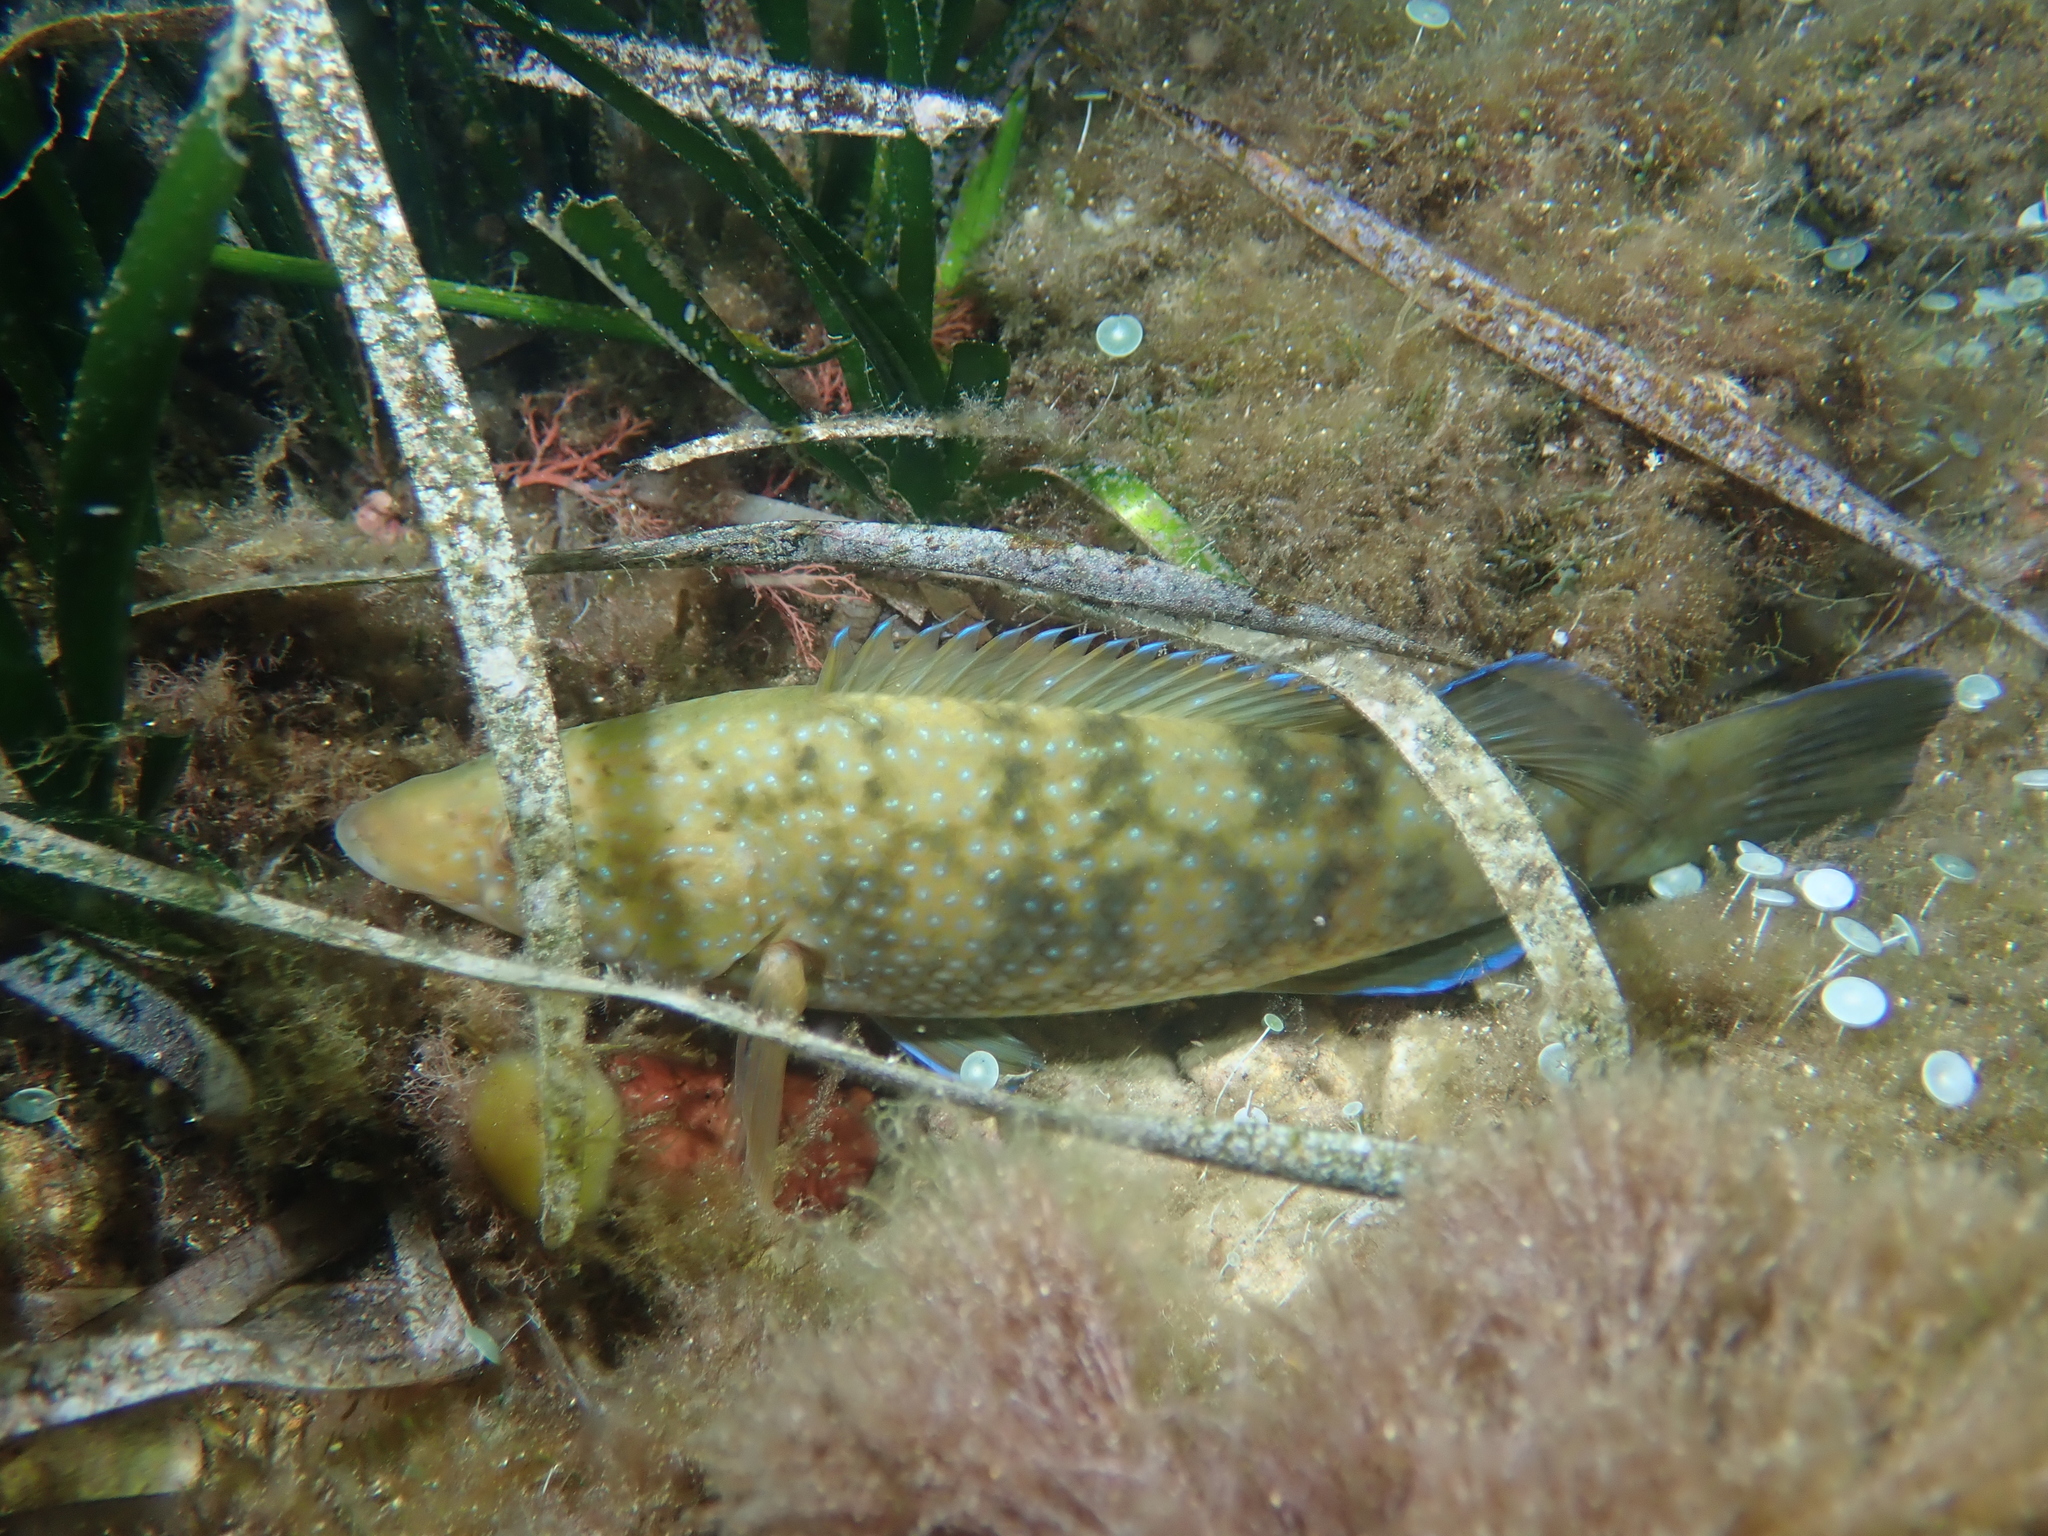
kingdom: Animalia
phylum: Chordata
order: Perciformes
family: Labridae
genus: Labrus
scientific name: Labrus merula
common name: Brown wrasse
